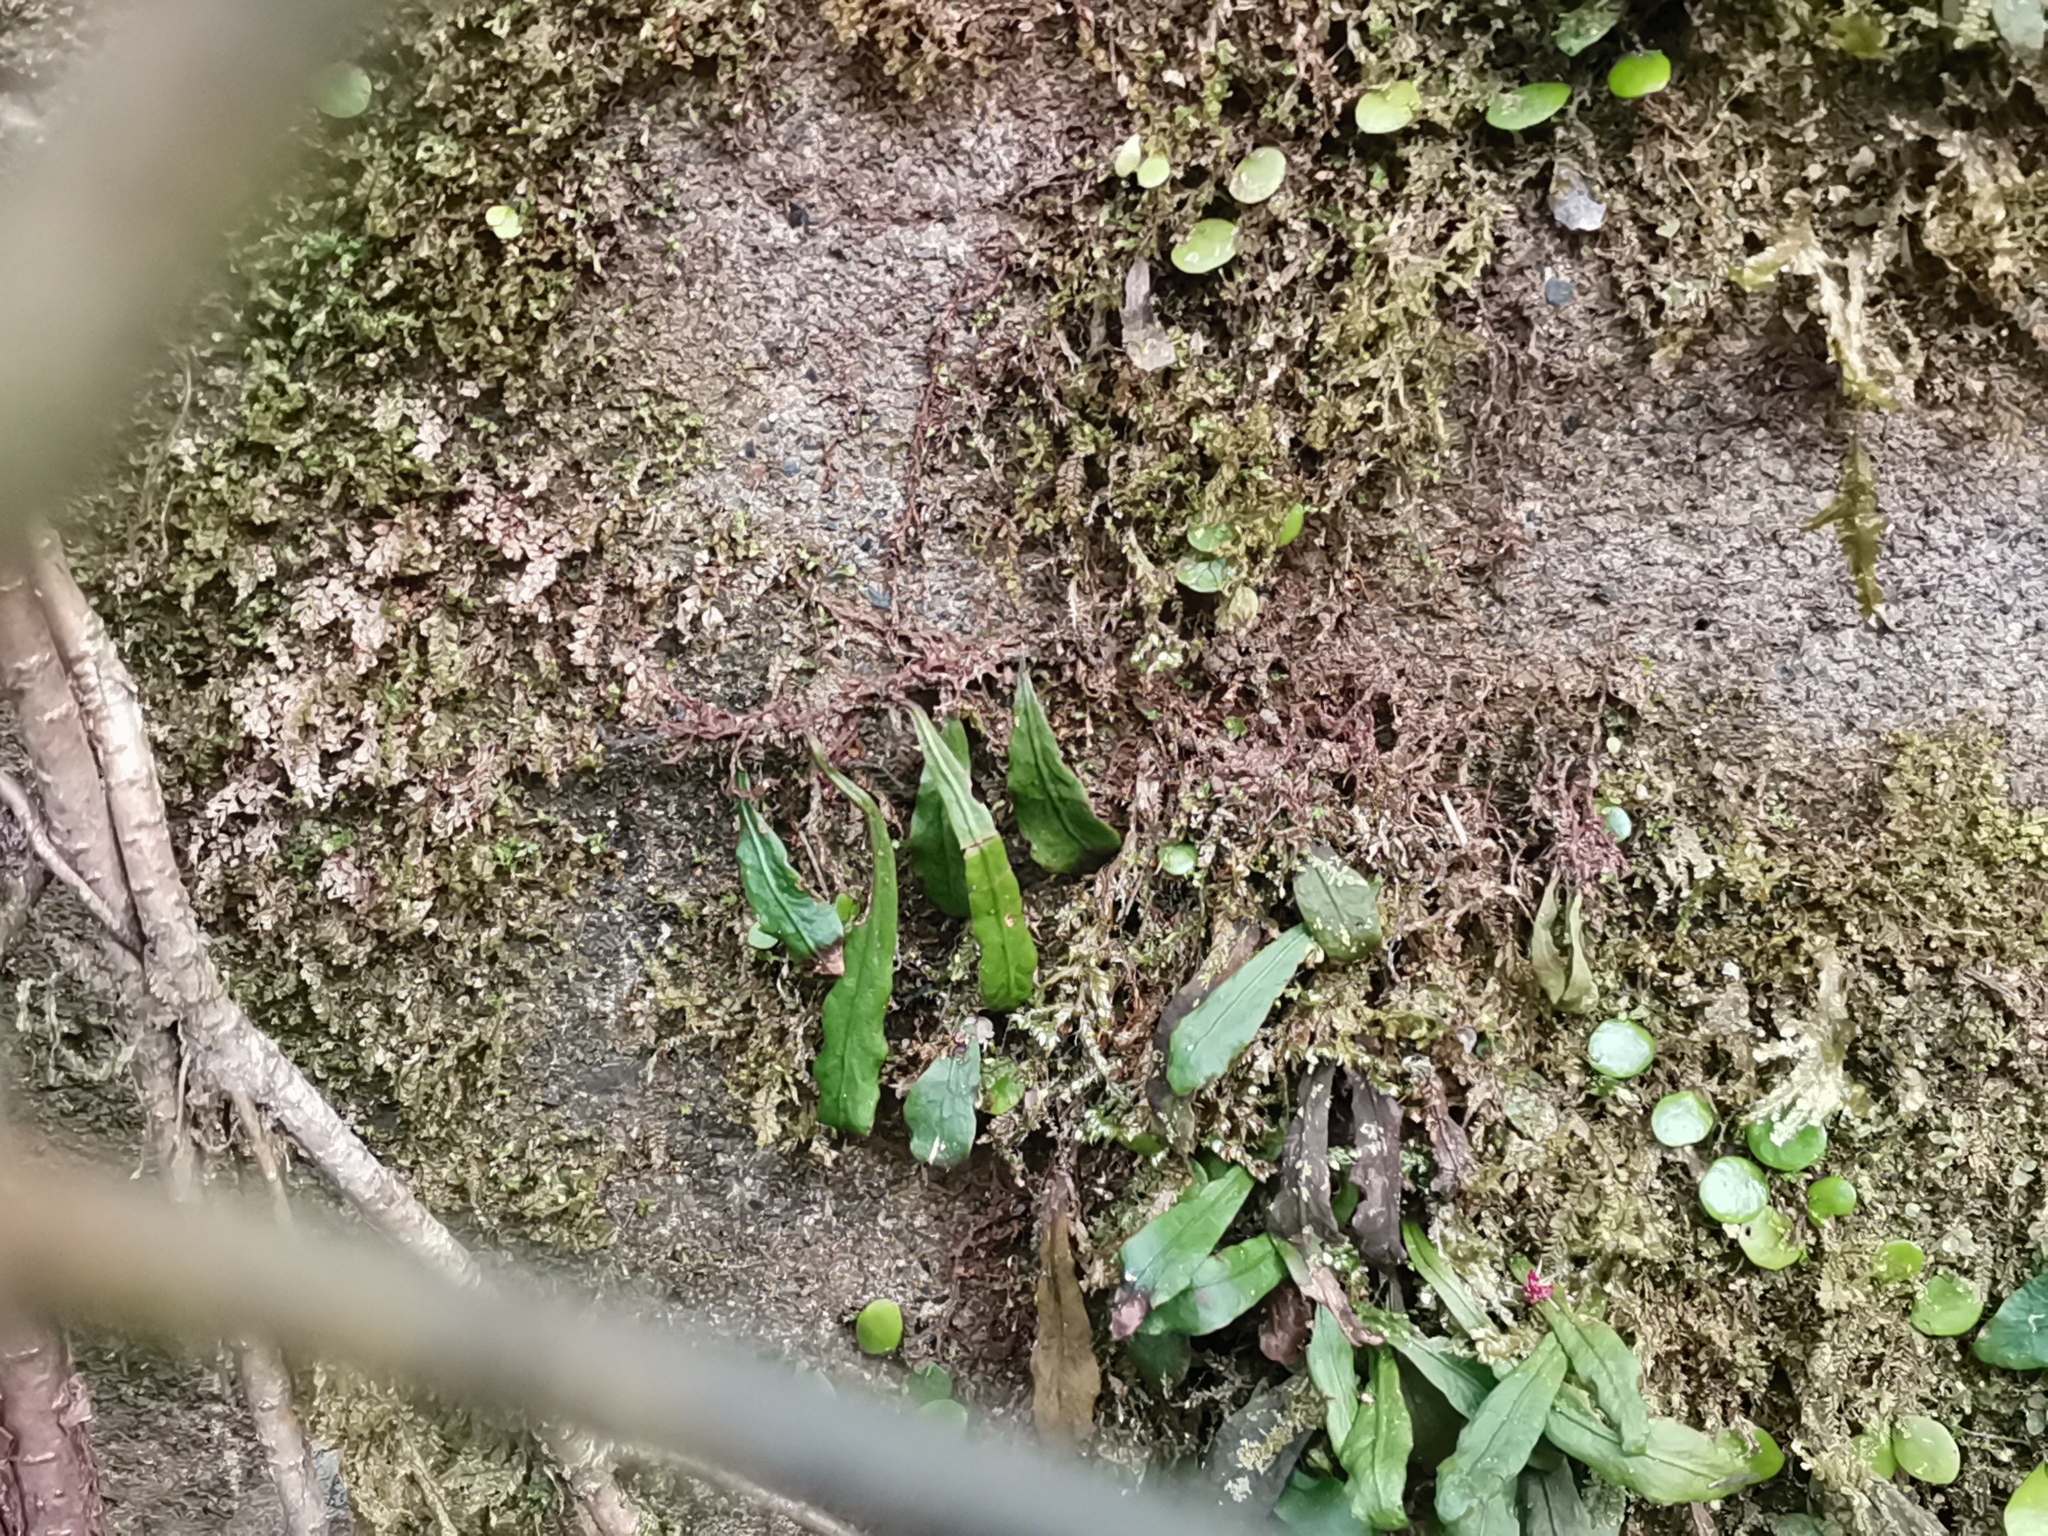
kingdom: Plantae
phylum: Tracheophyta
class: Polypodiopsida
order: Polypodiales
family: Polypodiaceae
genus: Loxogramme
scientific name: Loxogramme grammitoides
